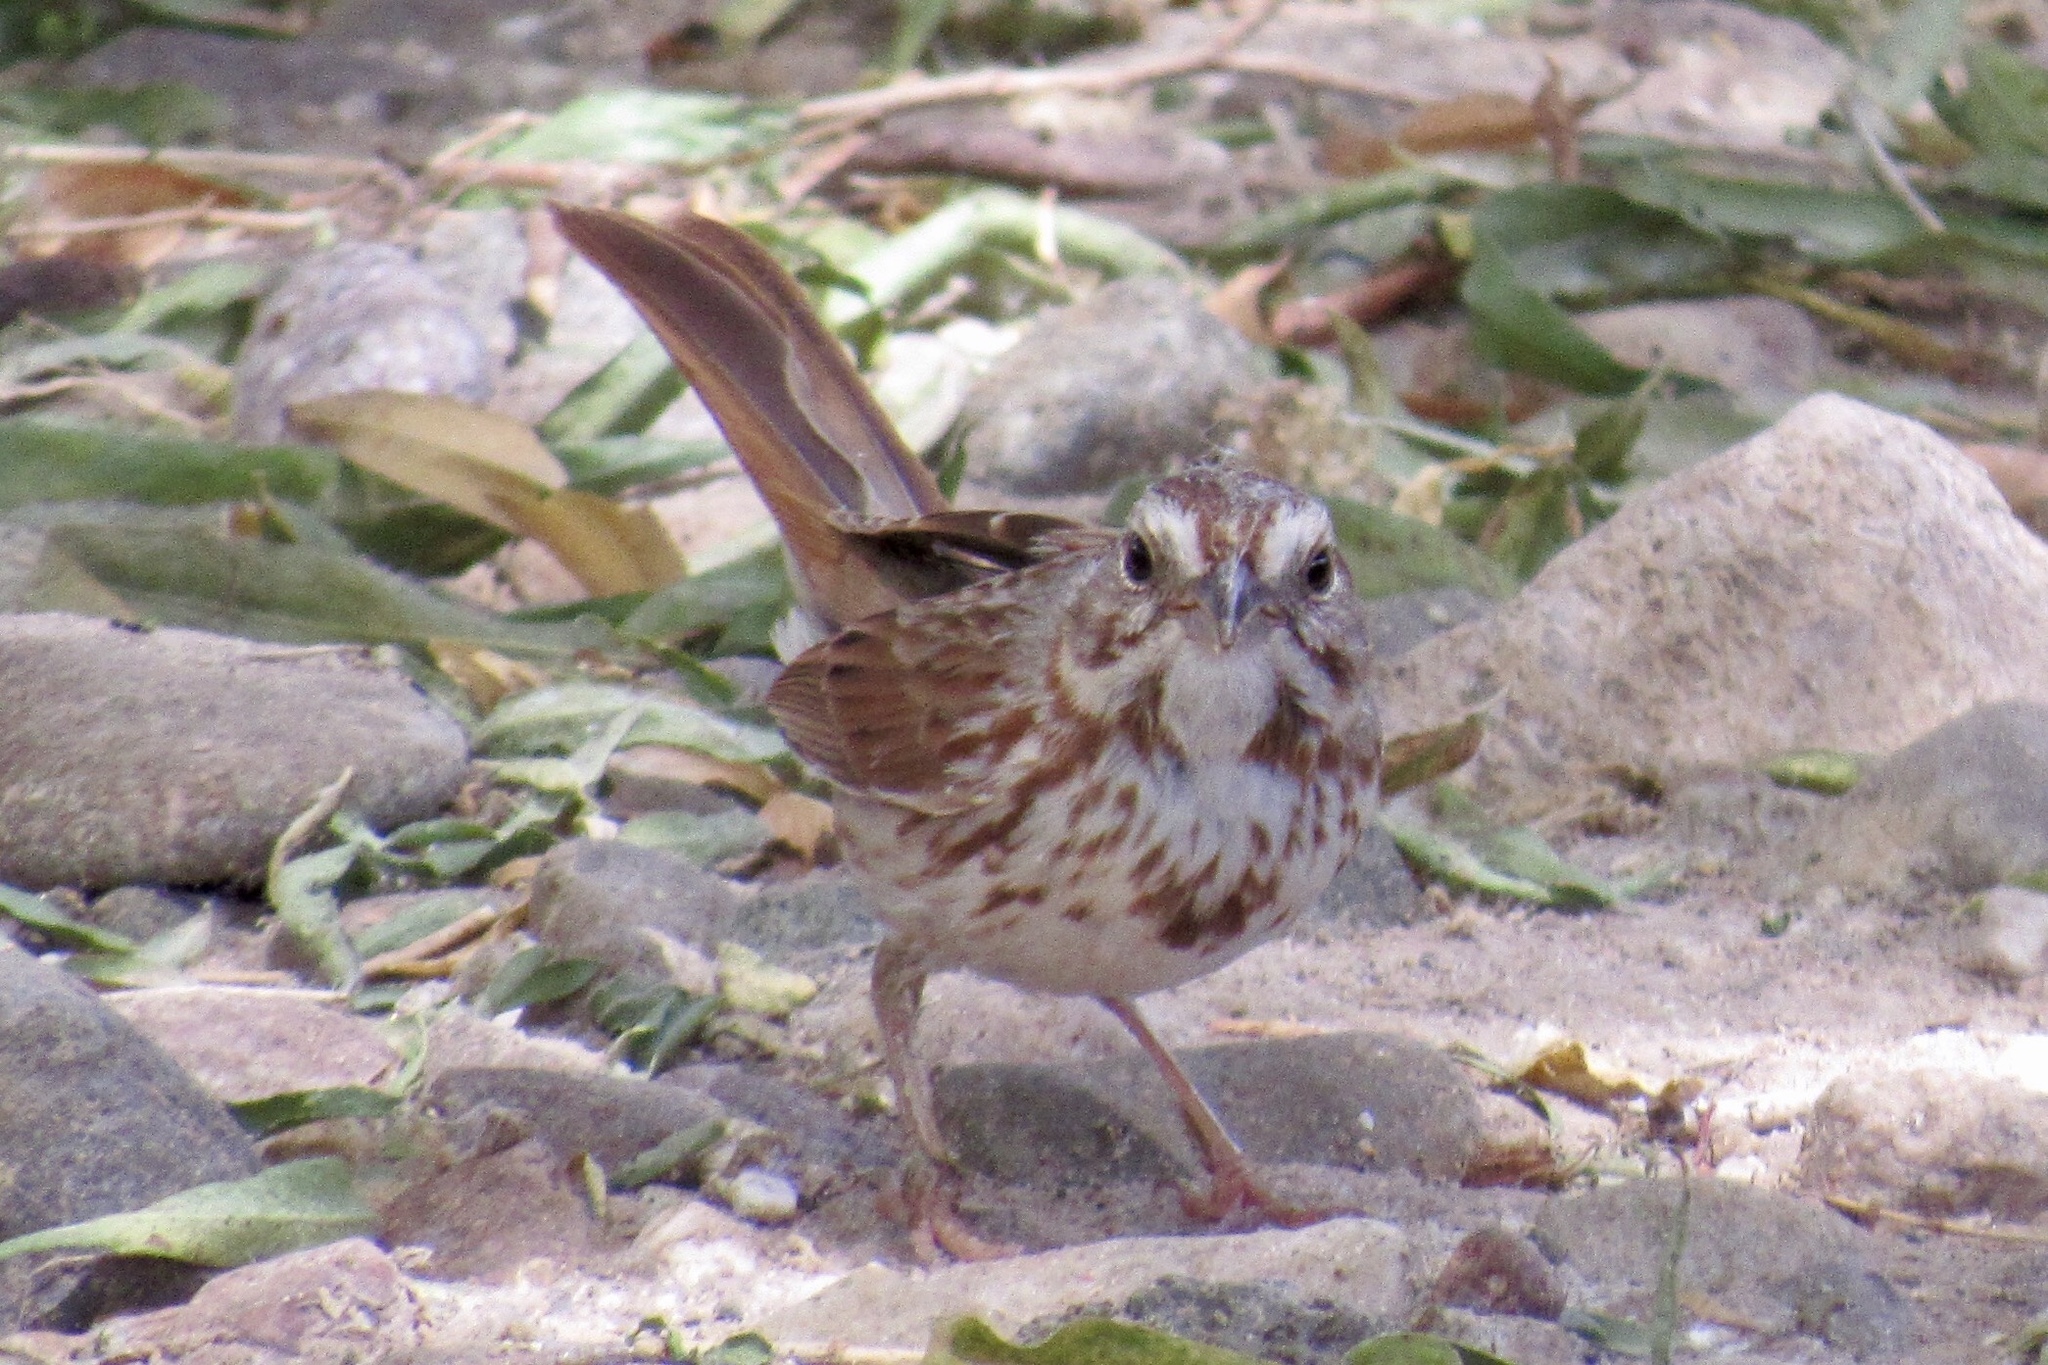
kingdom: Animalia
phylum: Chordata
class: Aves
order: Passeriformes
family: Passerellidae
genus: Melospiza
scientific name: Melospiza melodia
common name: Song sparrow
